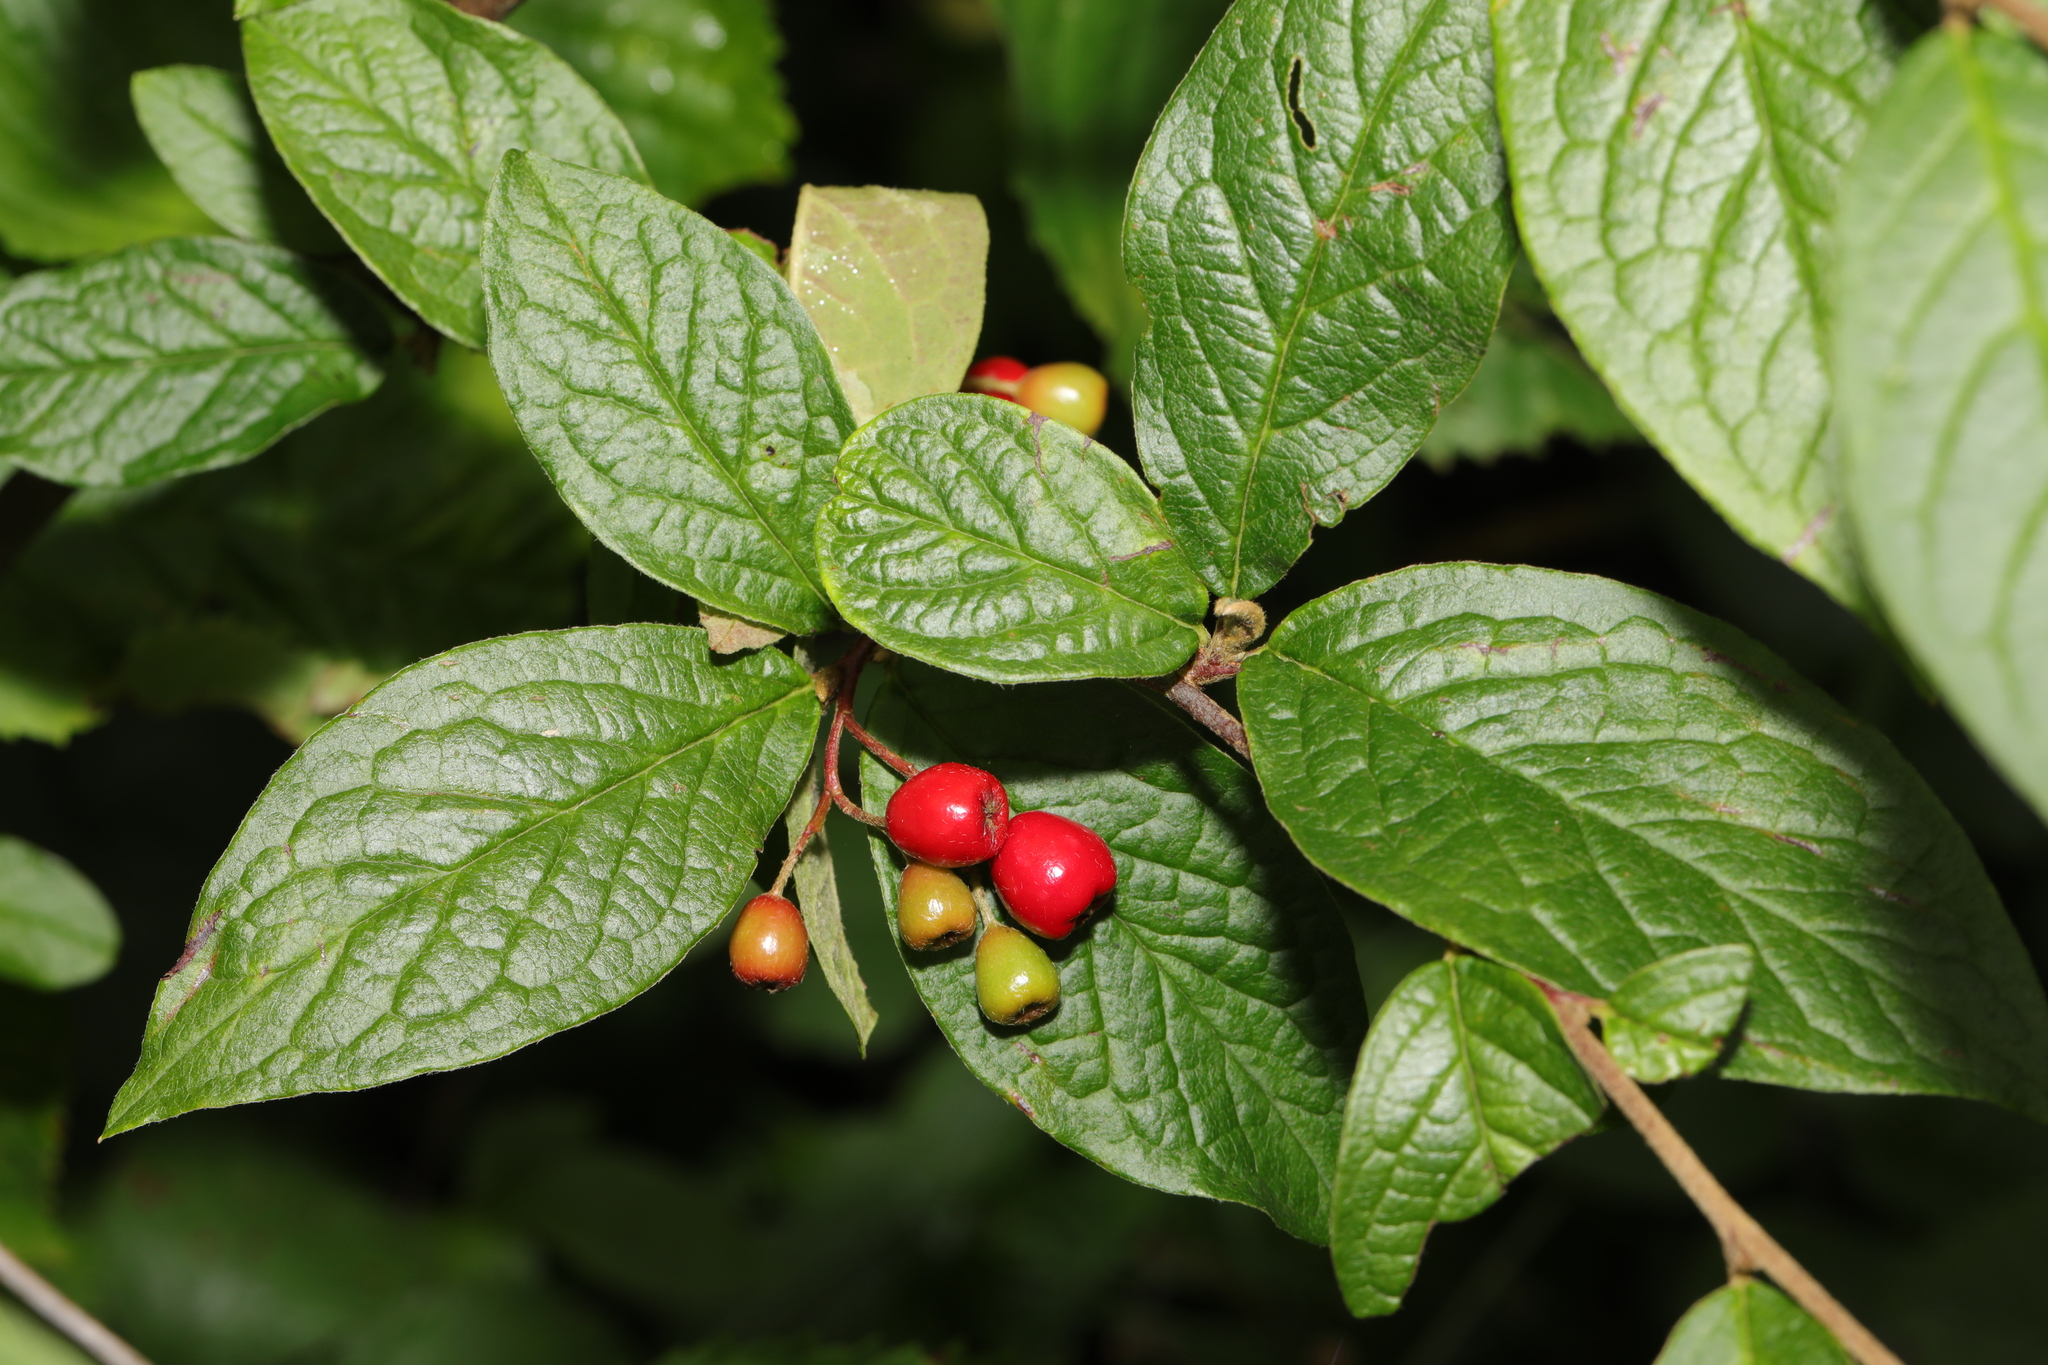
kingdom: Plantae
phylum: Tracheophyta
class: Magnoliopsida
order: Rosales
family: Rosaceae
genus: Cotoneaster
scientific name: Cotoneaster bullatus
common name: Hollyberry cotoneaster
